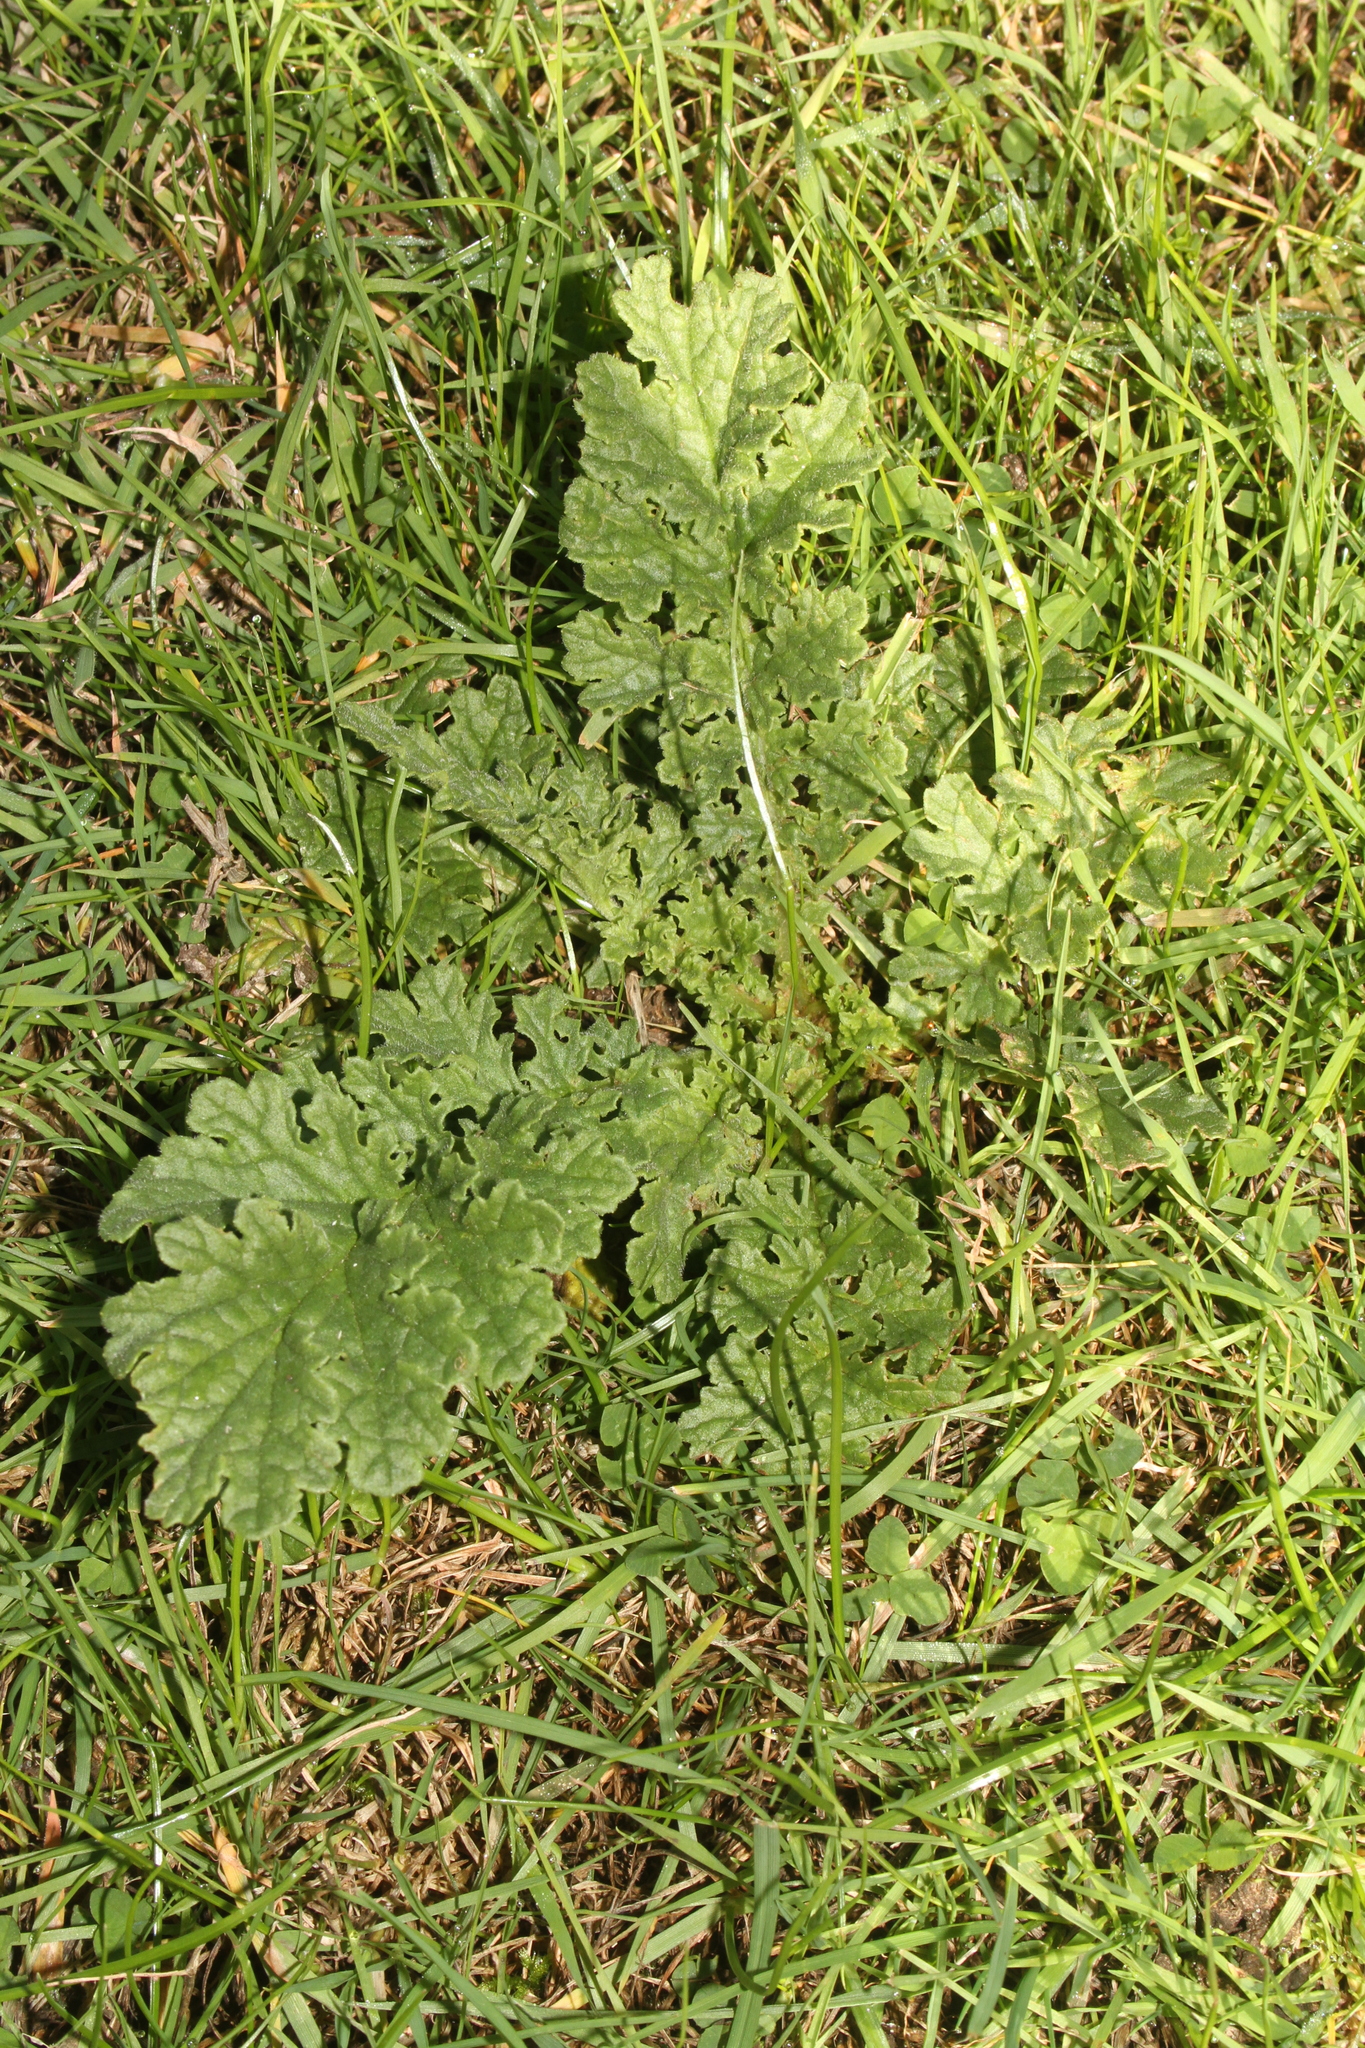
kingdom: Plantae
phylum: Tracheophyta
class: Magnoliopsida
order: Asterales
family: Asteraceae
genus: Jacobaea
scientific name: Jacobaea vulgaris
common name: Stinking willie
